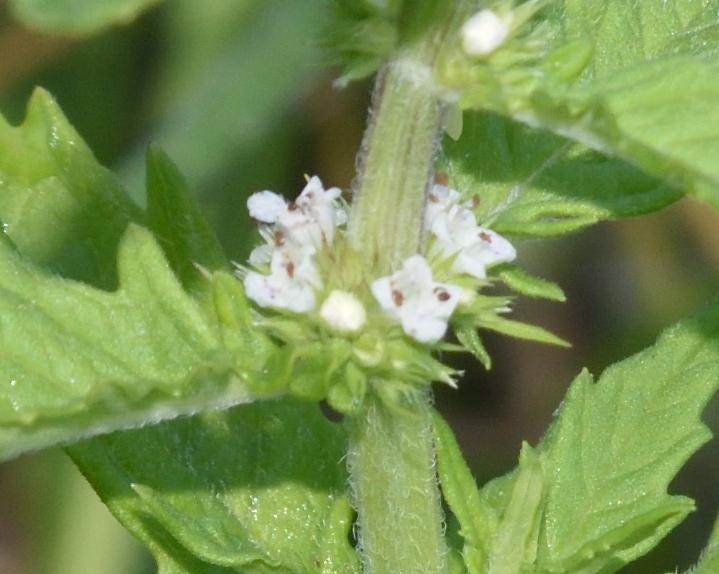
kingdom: Plantae
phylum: Tracheophyta
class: Magnoliopsida
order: Lamiales
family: Lamiaceae
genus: Lycopus
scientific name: Lycopus europaeus
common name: European bugleweed
